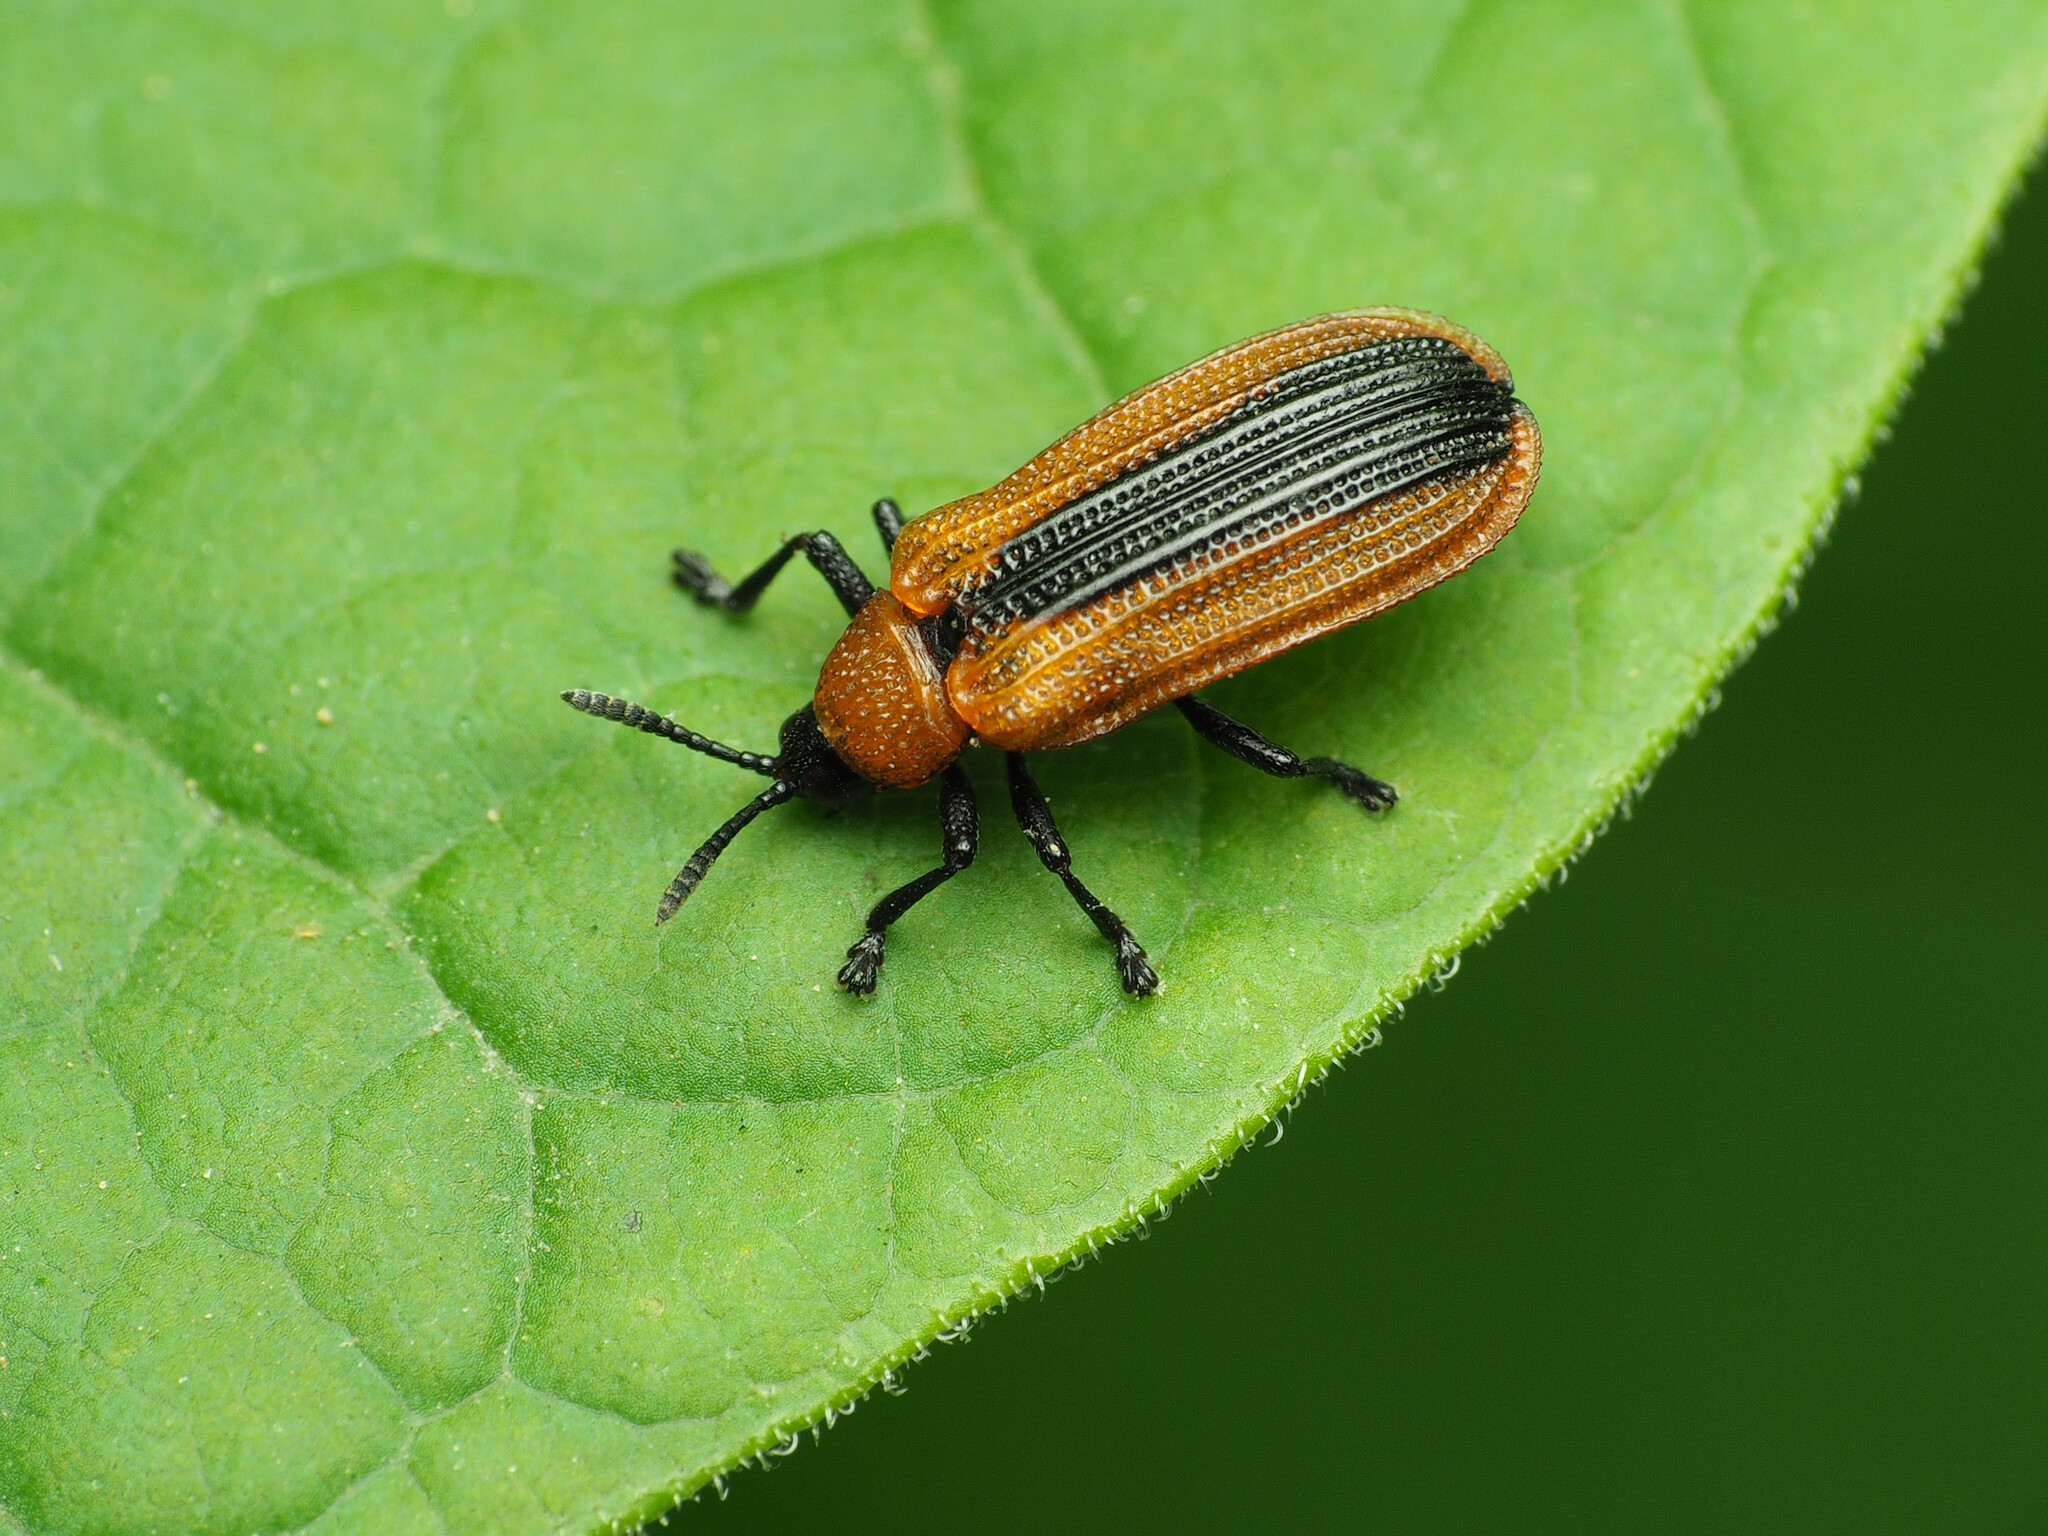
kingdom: Animalia
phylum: Arthropoda
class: Insecta
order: Coleoptera
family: Chrysomelidae
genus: Odontota
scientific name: Odontota dorsalis
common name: Locust leaf-miner beetle
